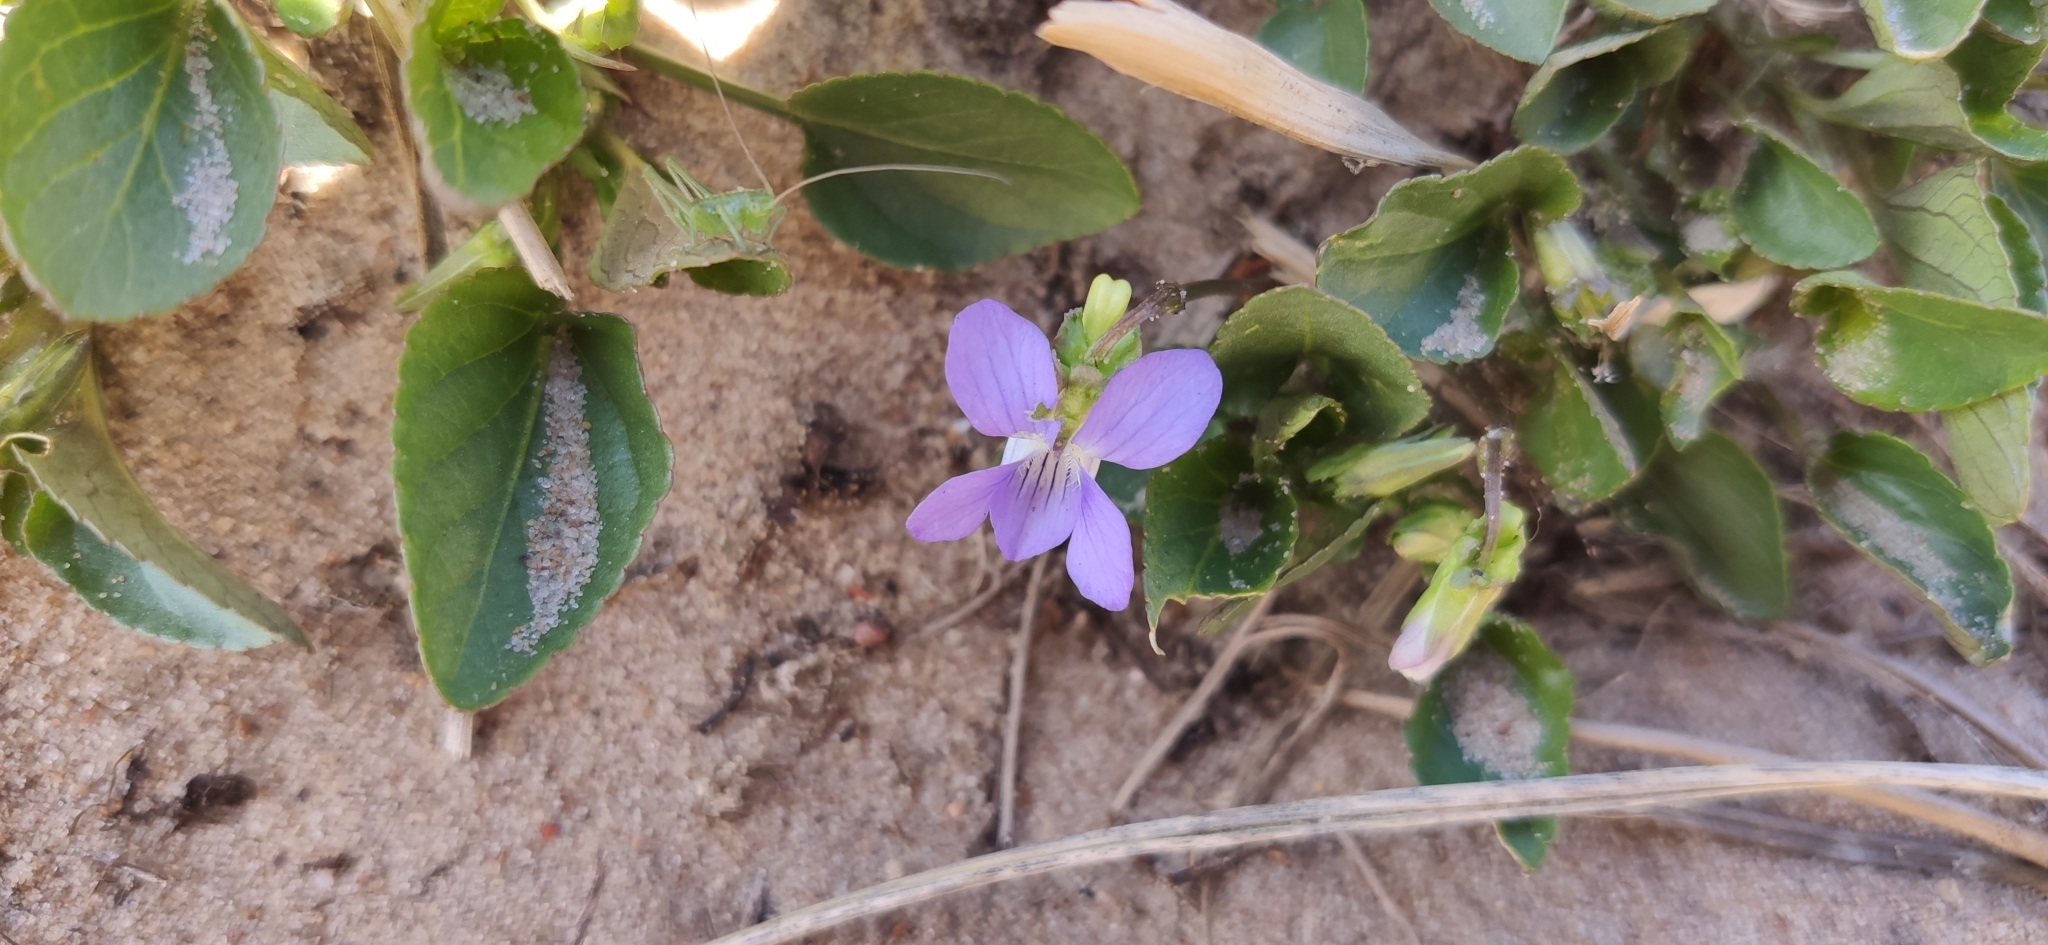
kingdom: Plantae
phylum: Tracheophyta
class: Magnoliopsida
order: Malpighiales
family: Violaceae
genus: Viola
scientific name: Viola canina
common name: Heath dog-violet
